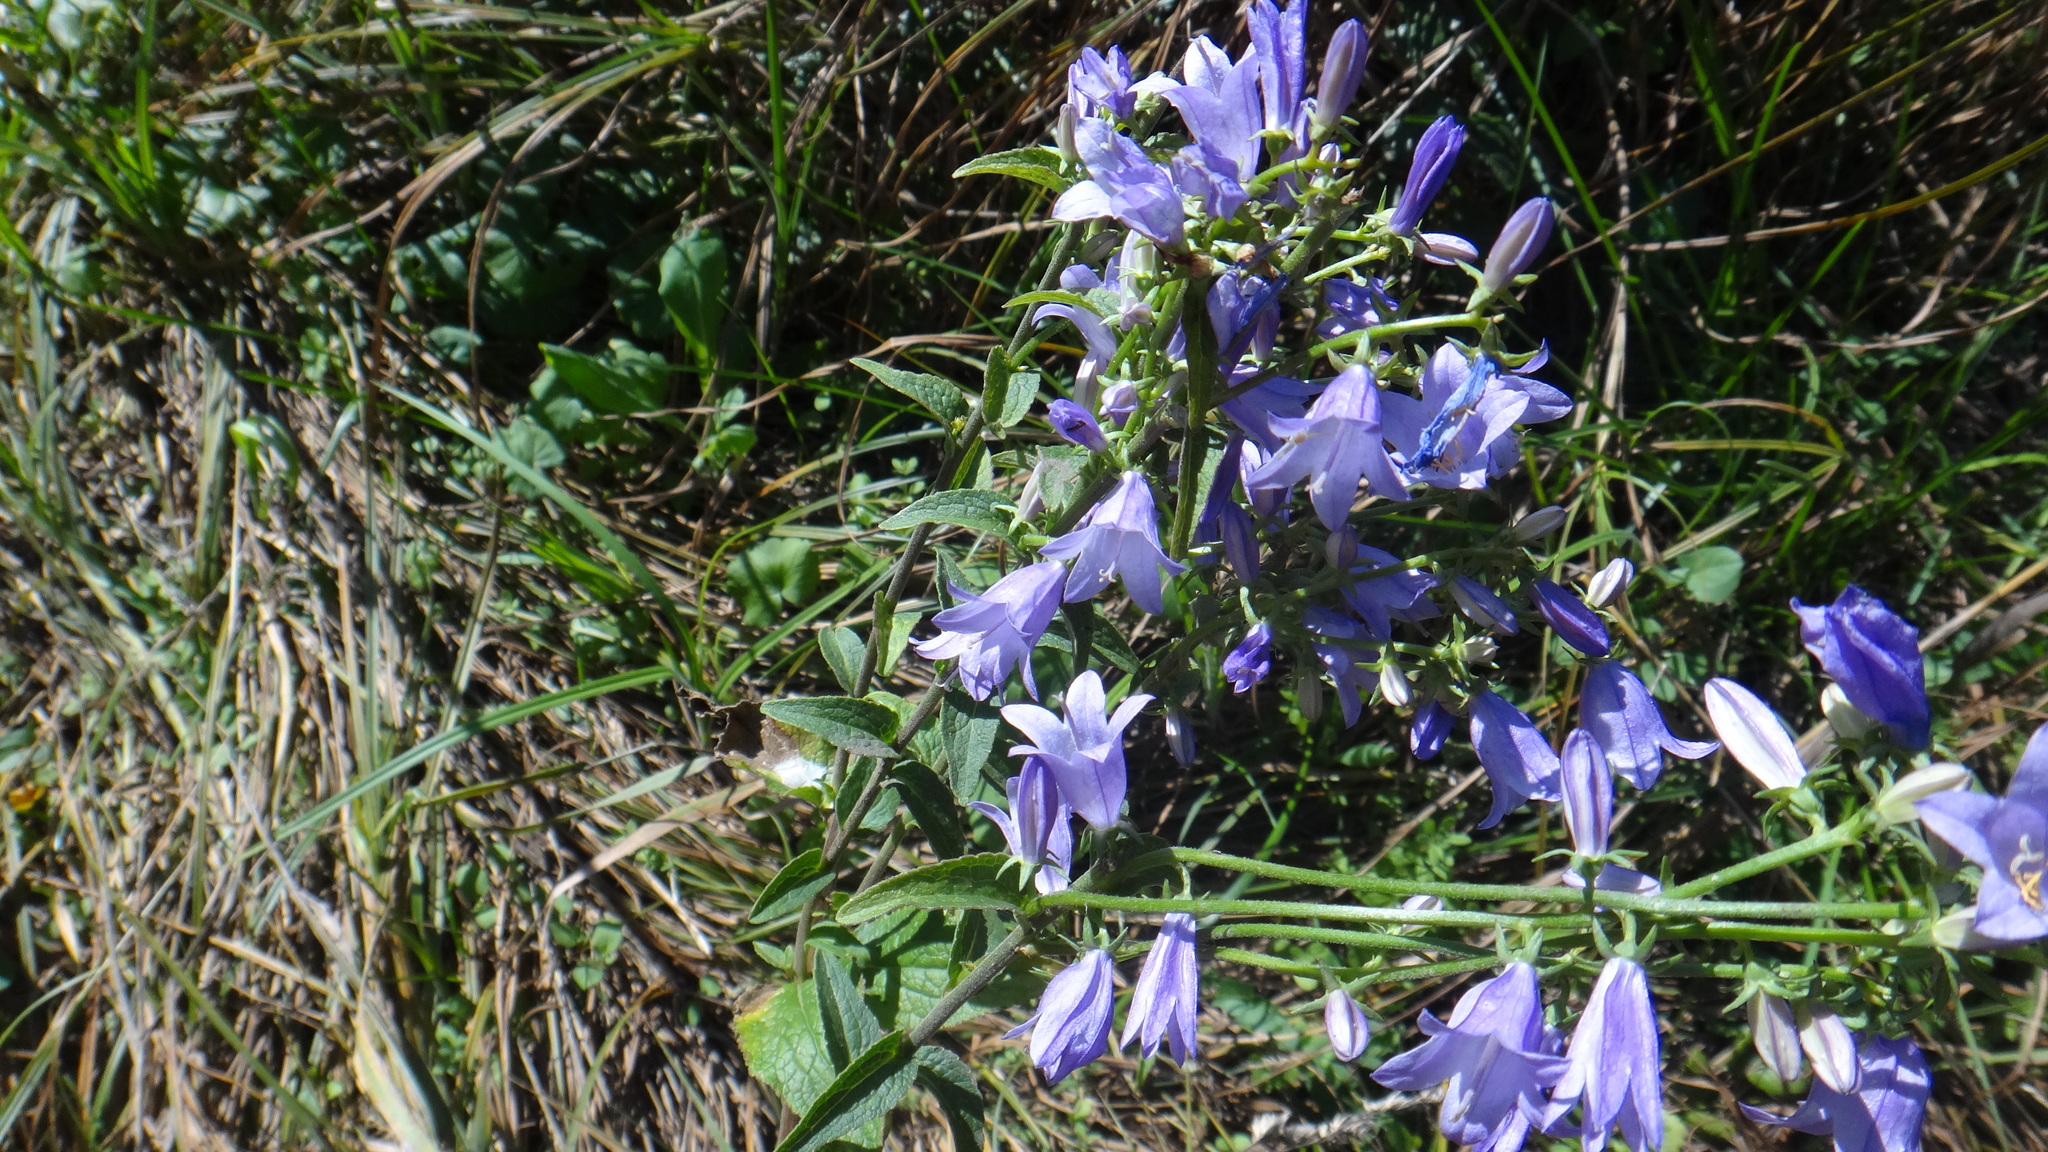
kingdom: Plantae
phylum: Tracheophyta
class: Magnoliopsida
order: Asterales
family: Campanulaceae
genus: Campanula
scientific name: Campanula bononiensis
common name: Pale bellflower
